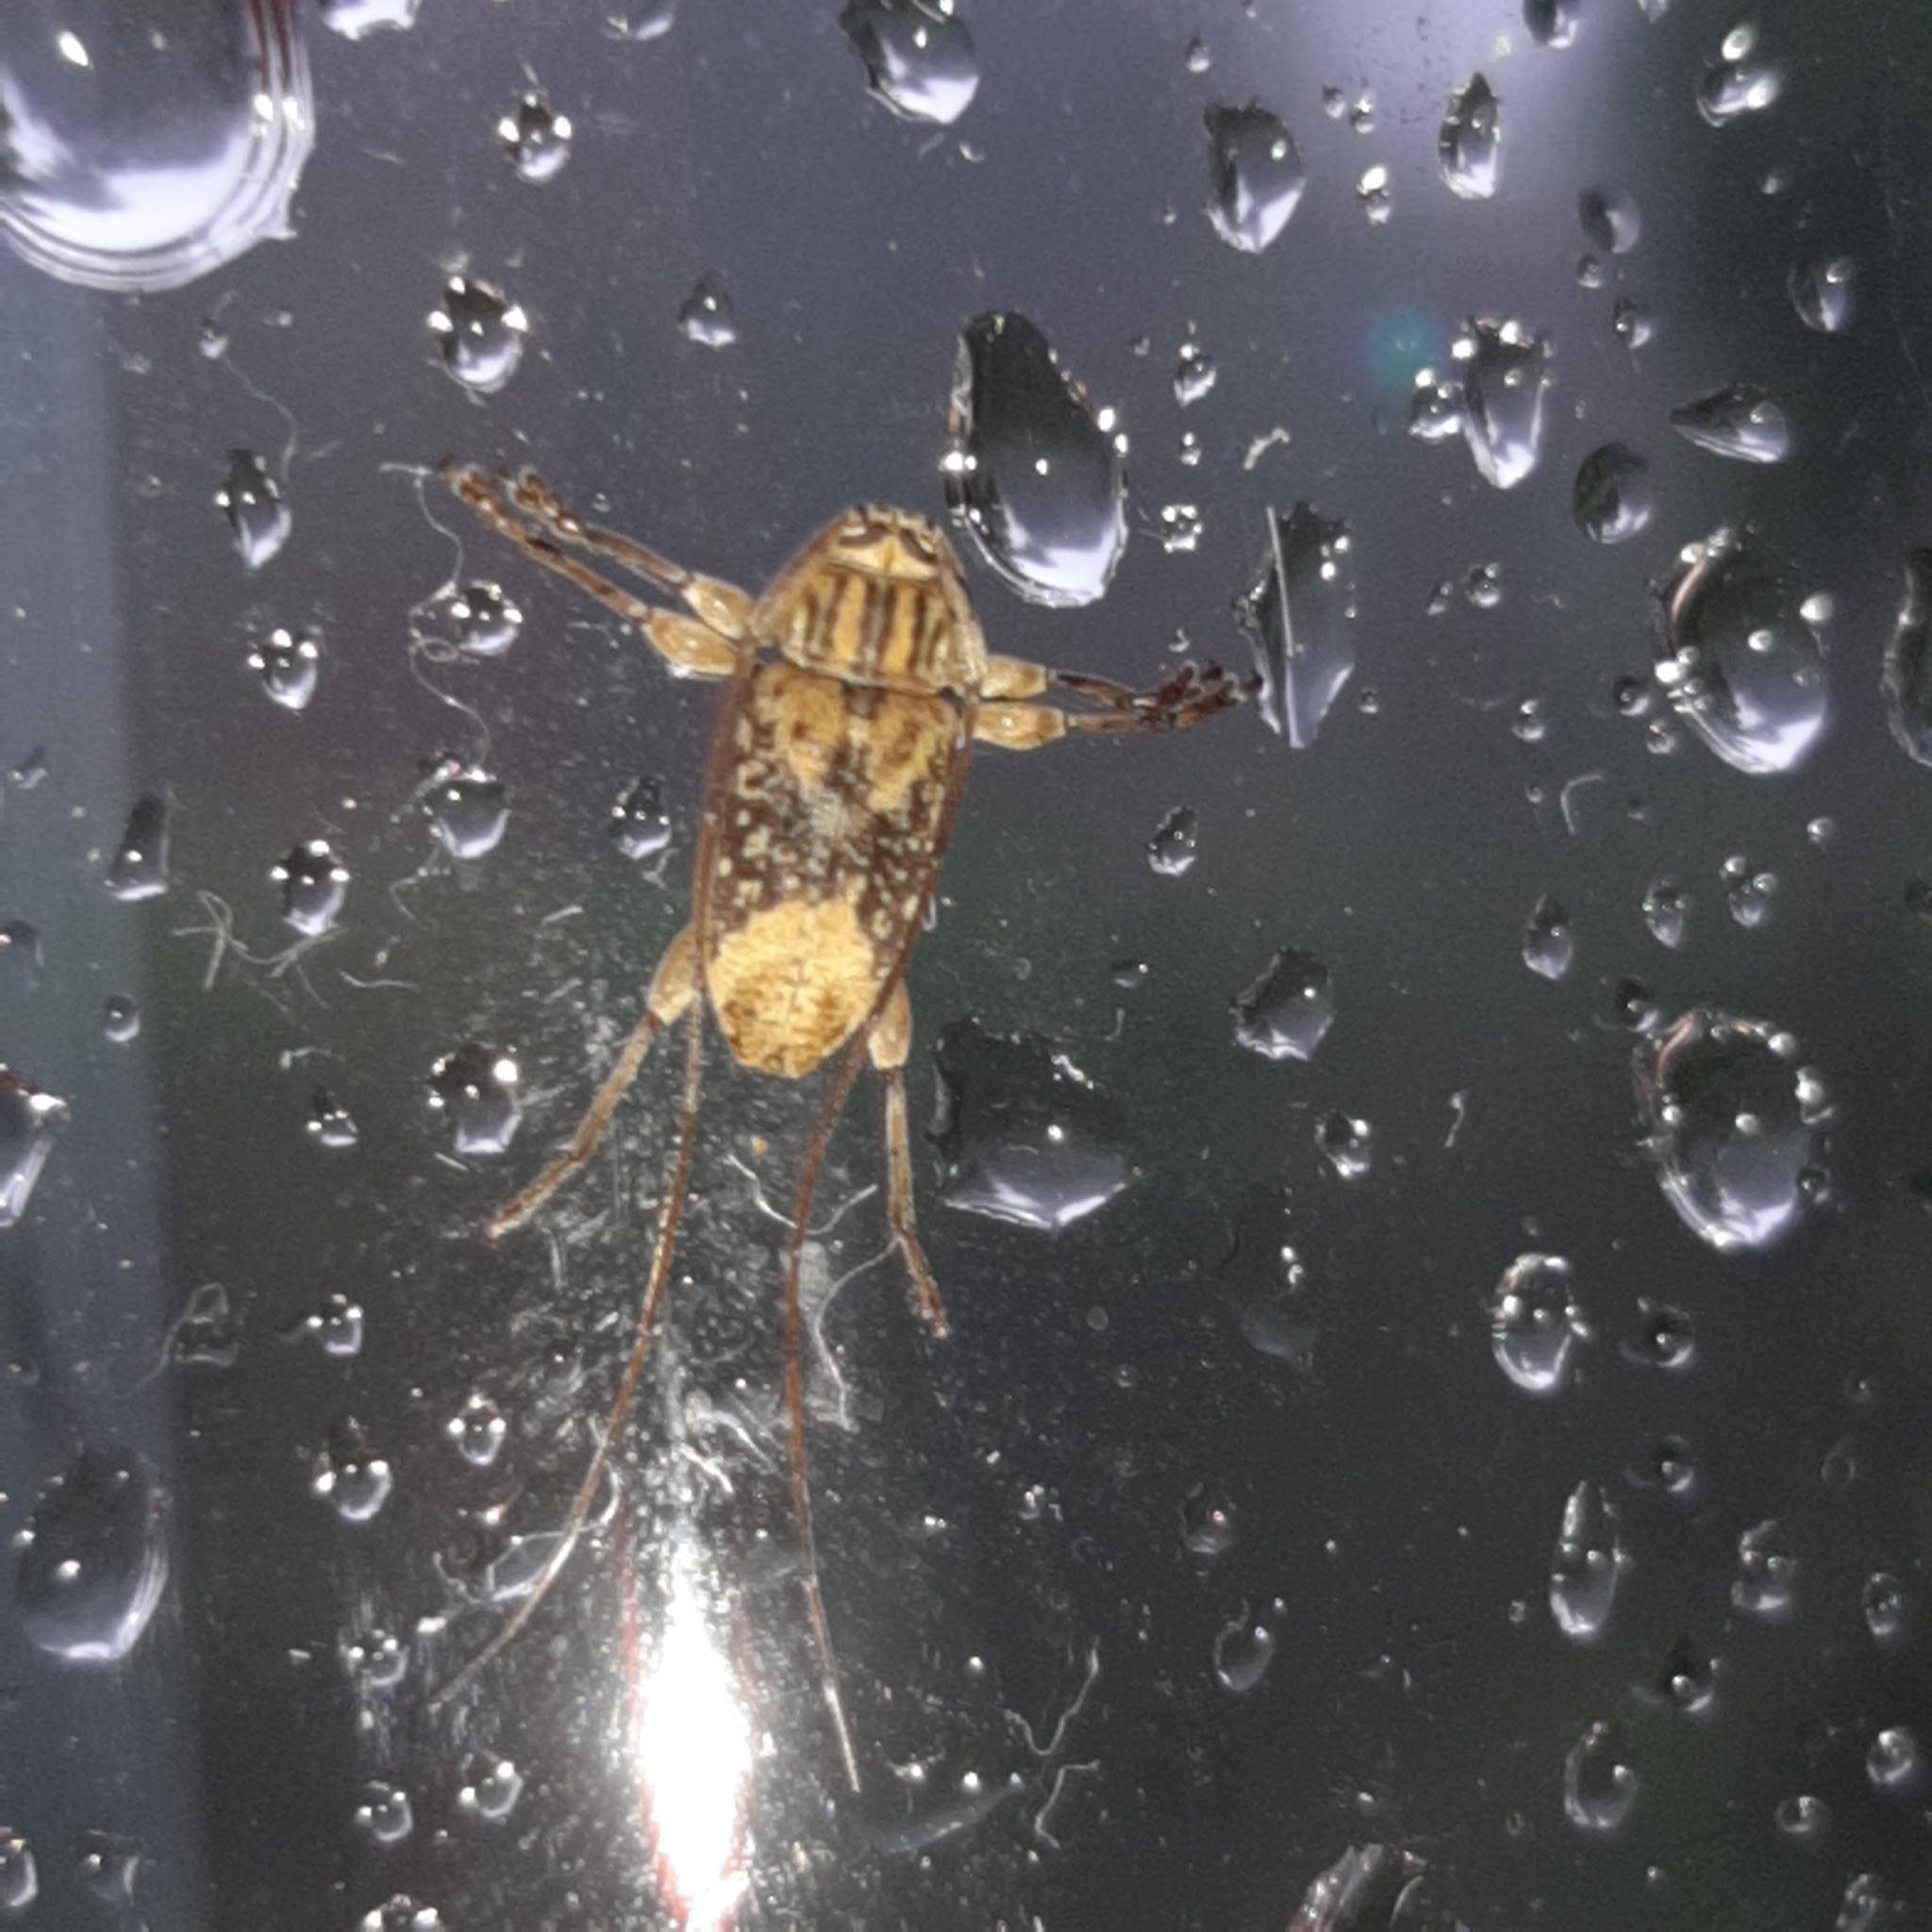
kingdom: Animalia
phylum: Arthropoda
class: Insecta
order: Coleoptera
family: Cerambycidae
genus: Atrypanius
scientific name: Atrypanius leucopygus
